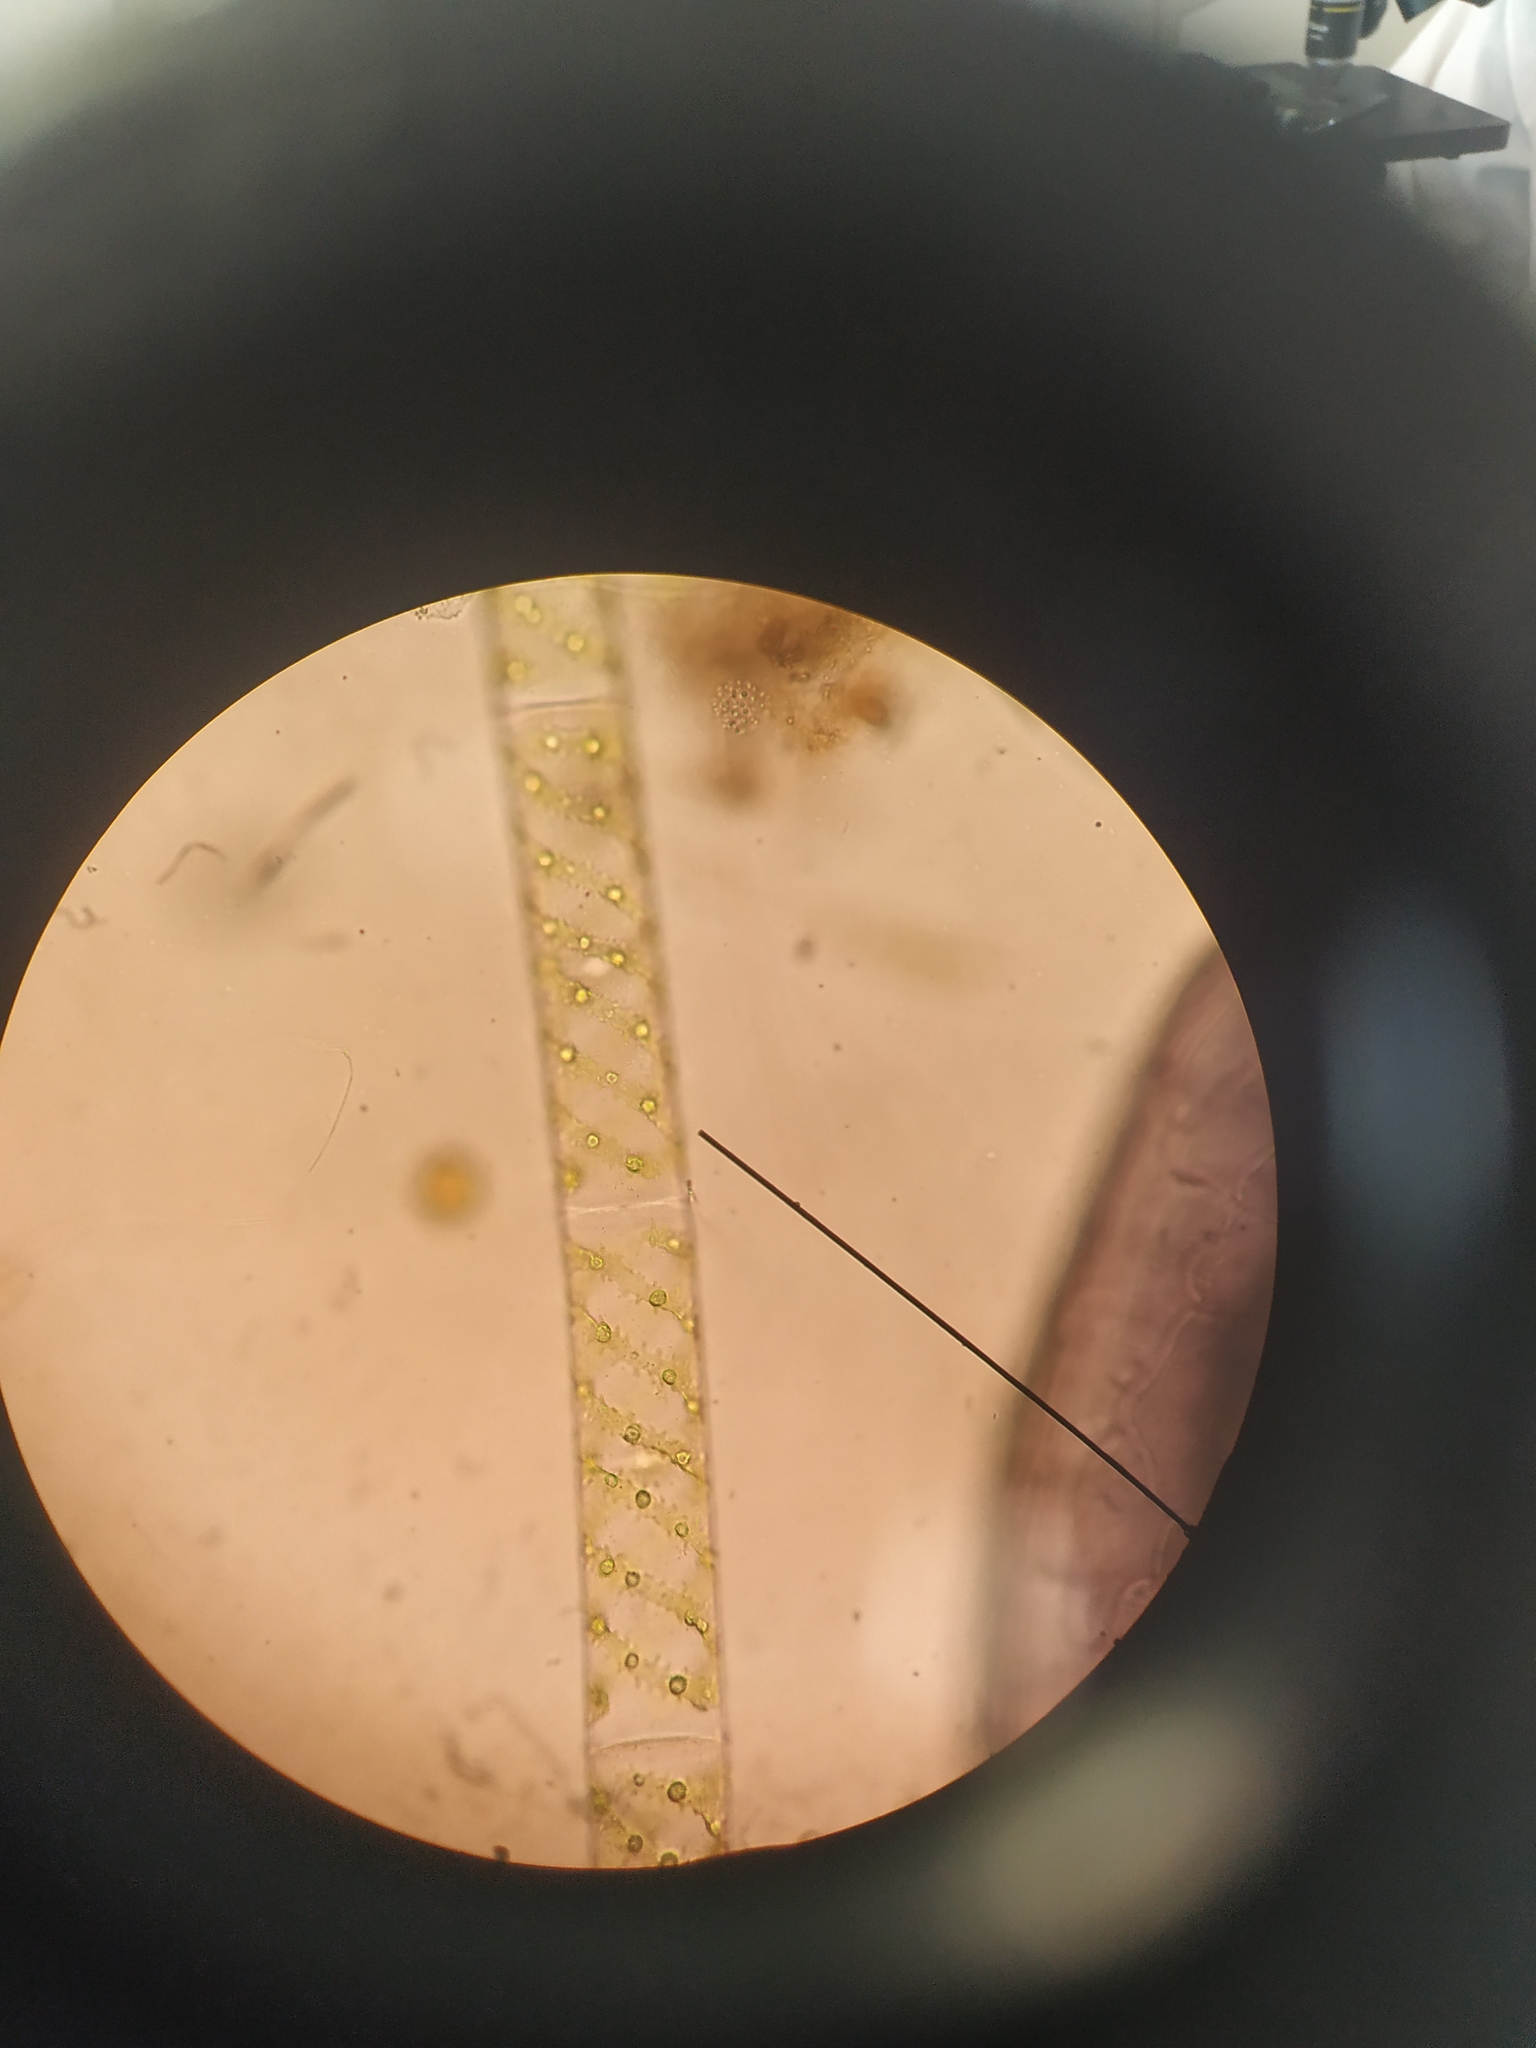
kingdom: Plantae
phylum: Charophyta
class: Zygnematophyceae
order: Zygnematales
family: Zygnemataceae
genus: Spirogyra
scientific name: Spirogyra
